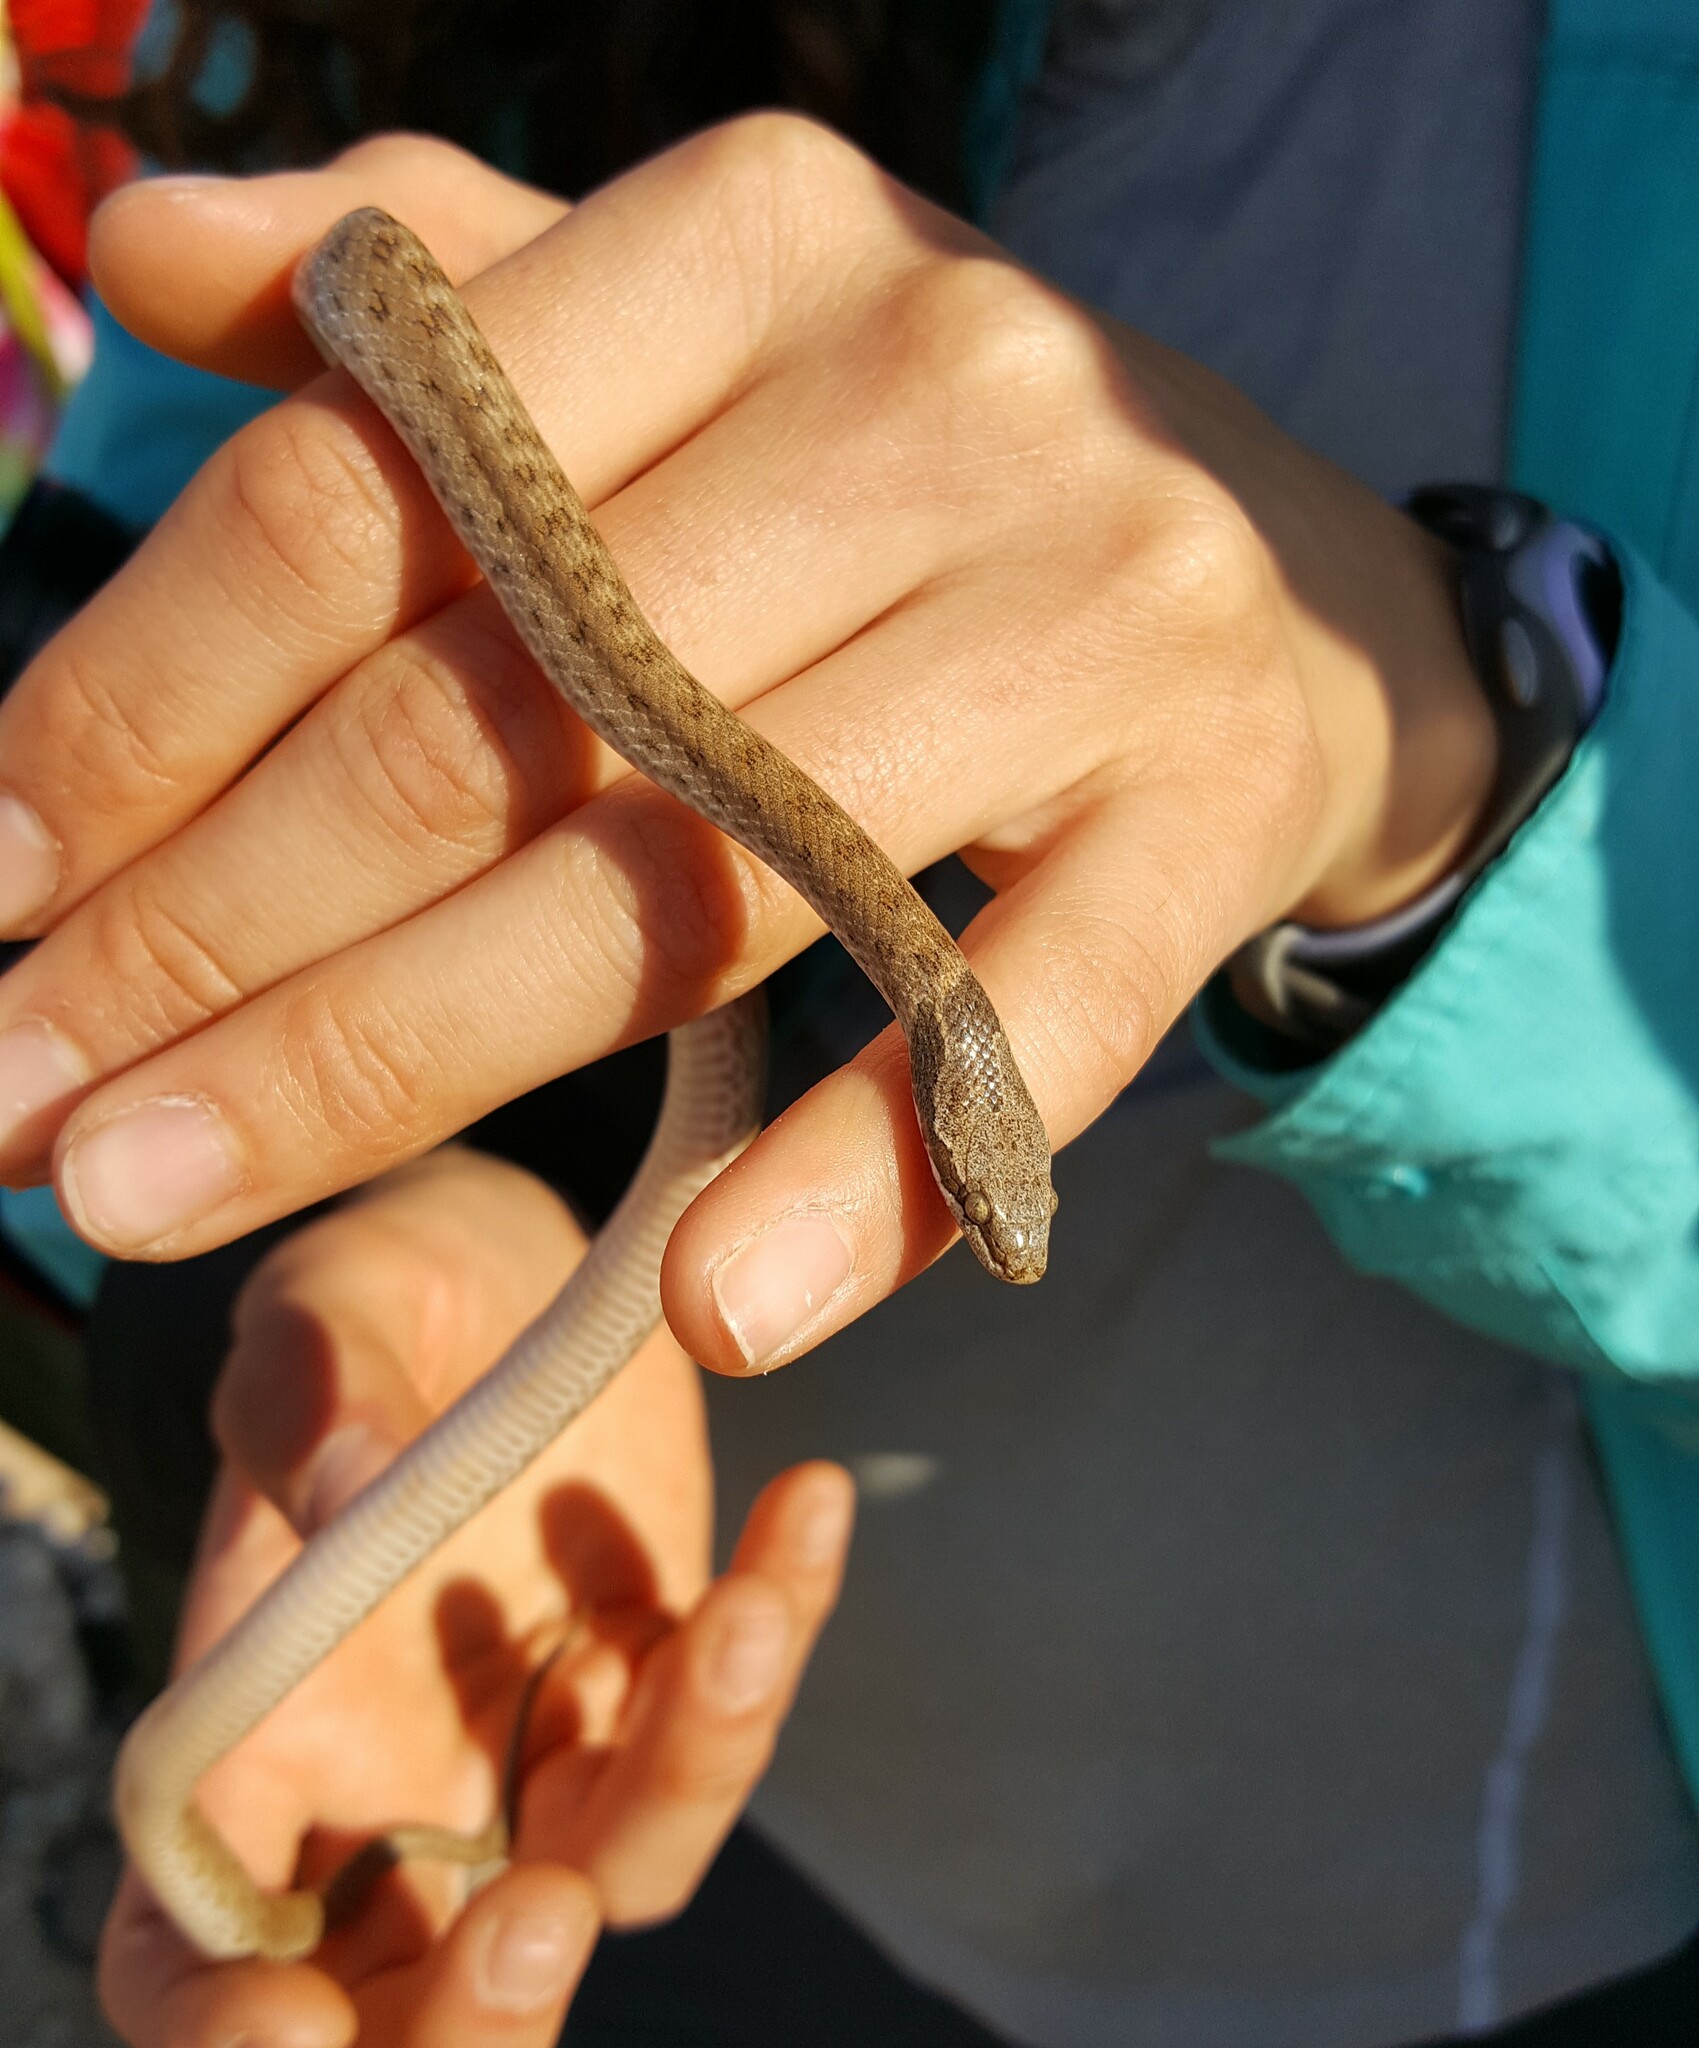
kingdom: Animalia
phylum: Chordata
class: Squamata
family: Colubridae
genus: Hypsiglena
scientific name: Hypsiglena chlorophaea
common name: Desert nightsnake
